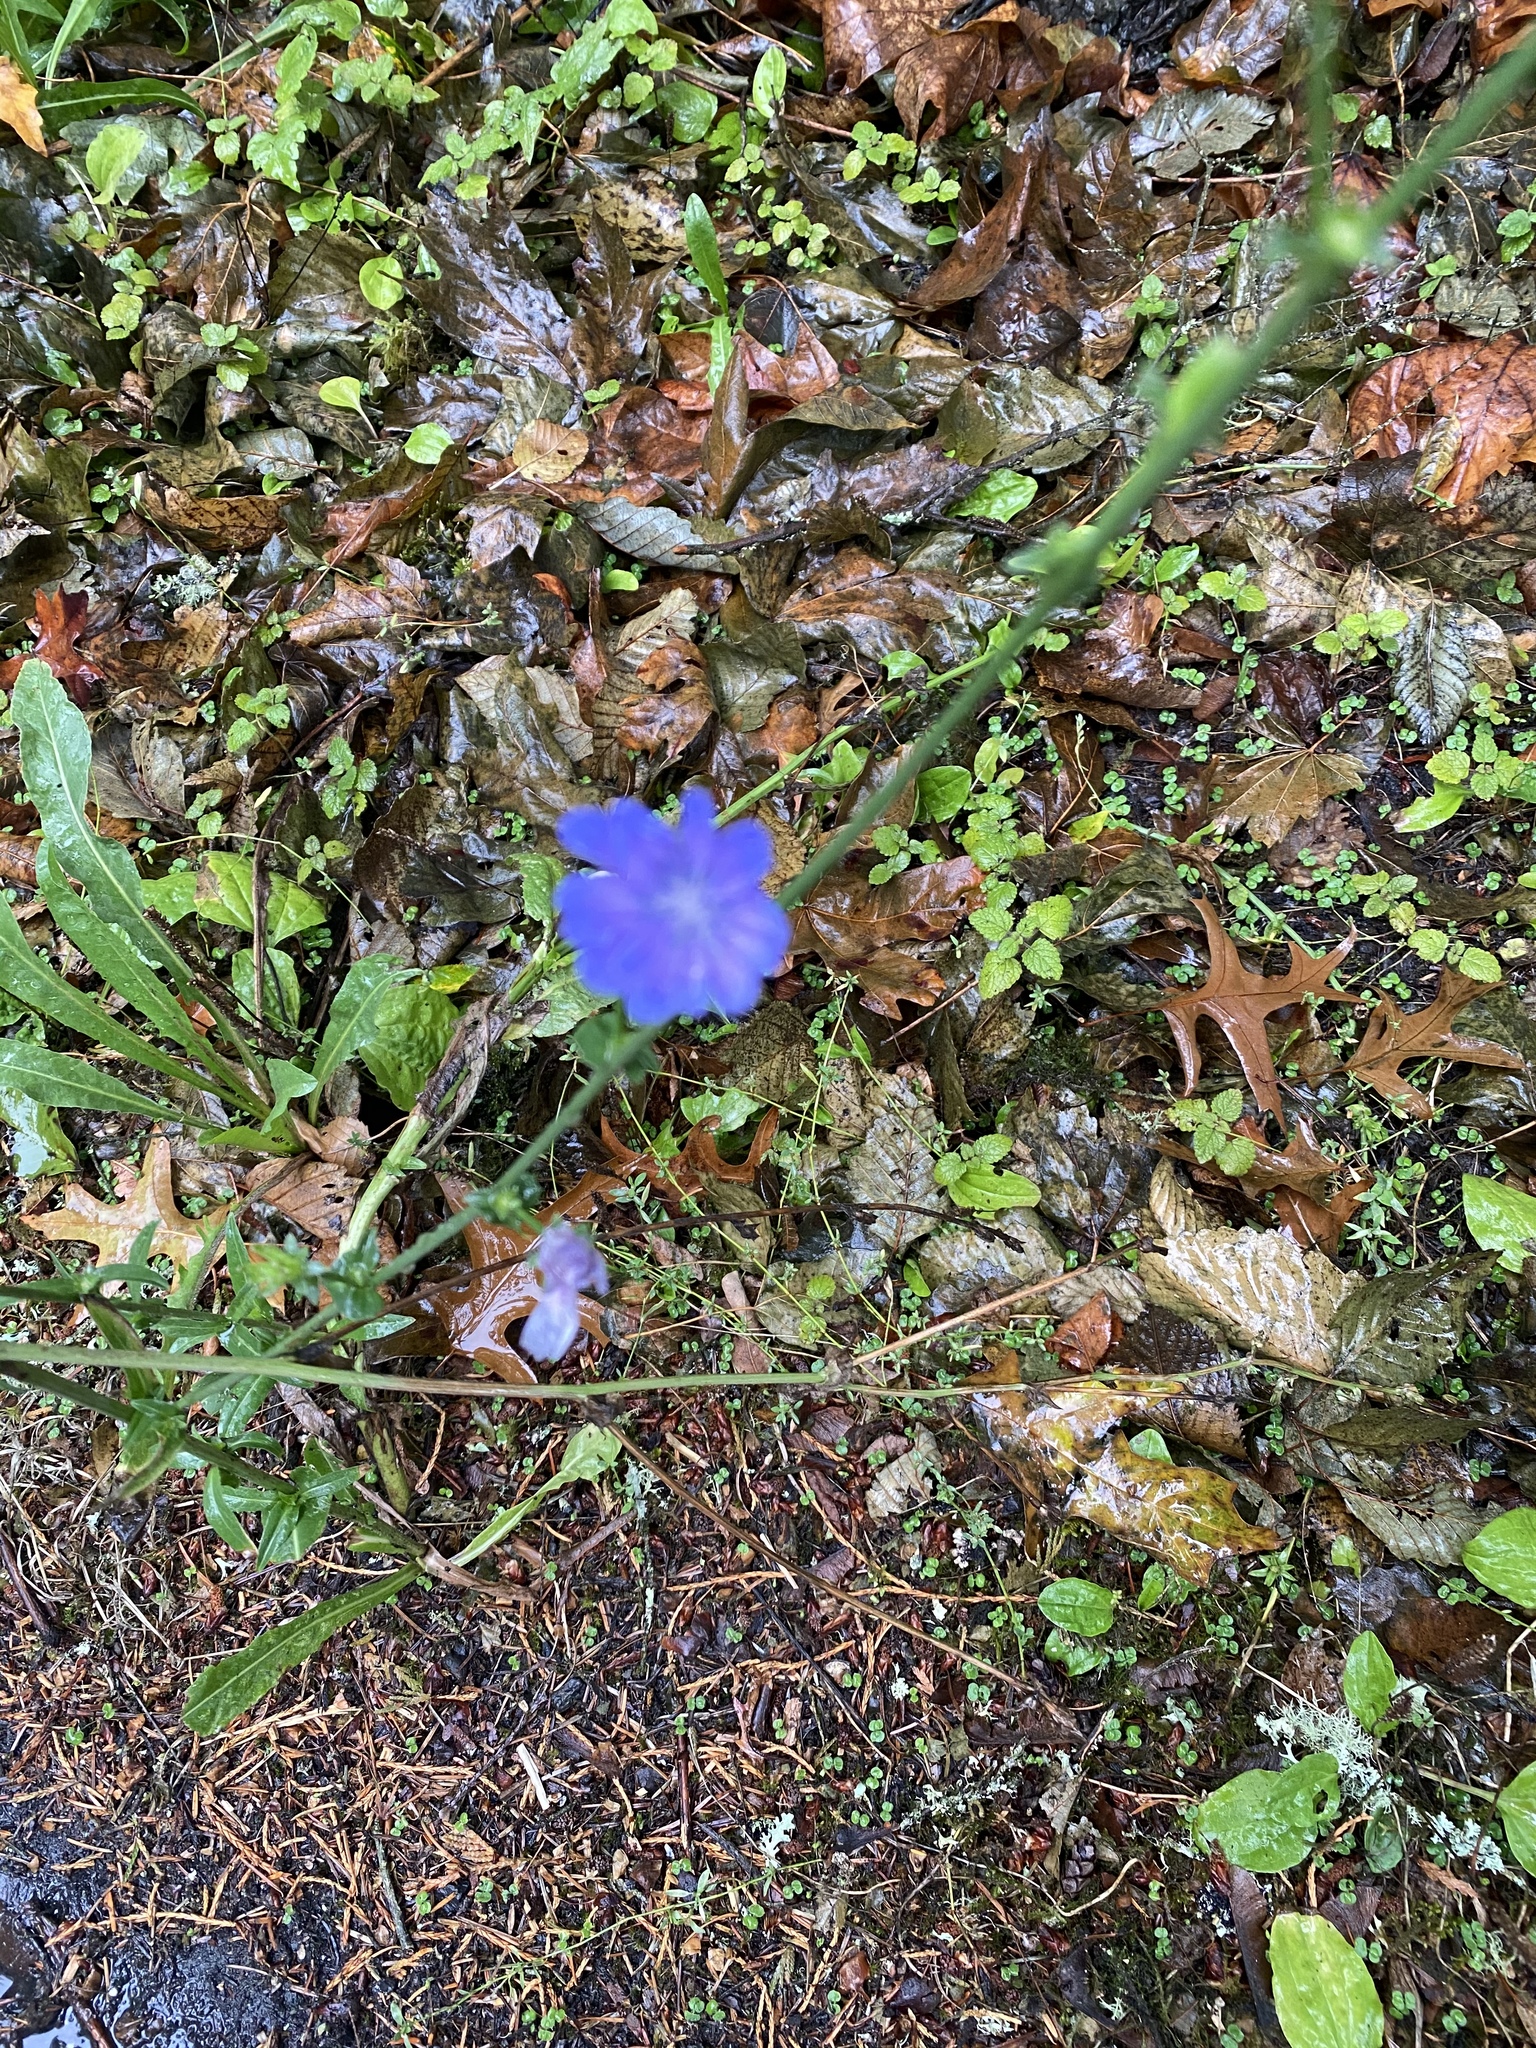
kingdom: Plantae
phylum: Tracheophyta
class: Magnoliopsida
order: Asterales
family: Asteraceae
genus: Cichorium
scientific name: Cichorium intybus
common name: Chicory
